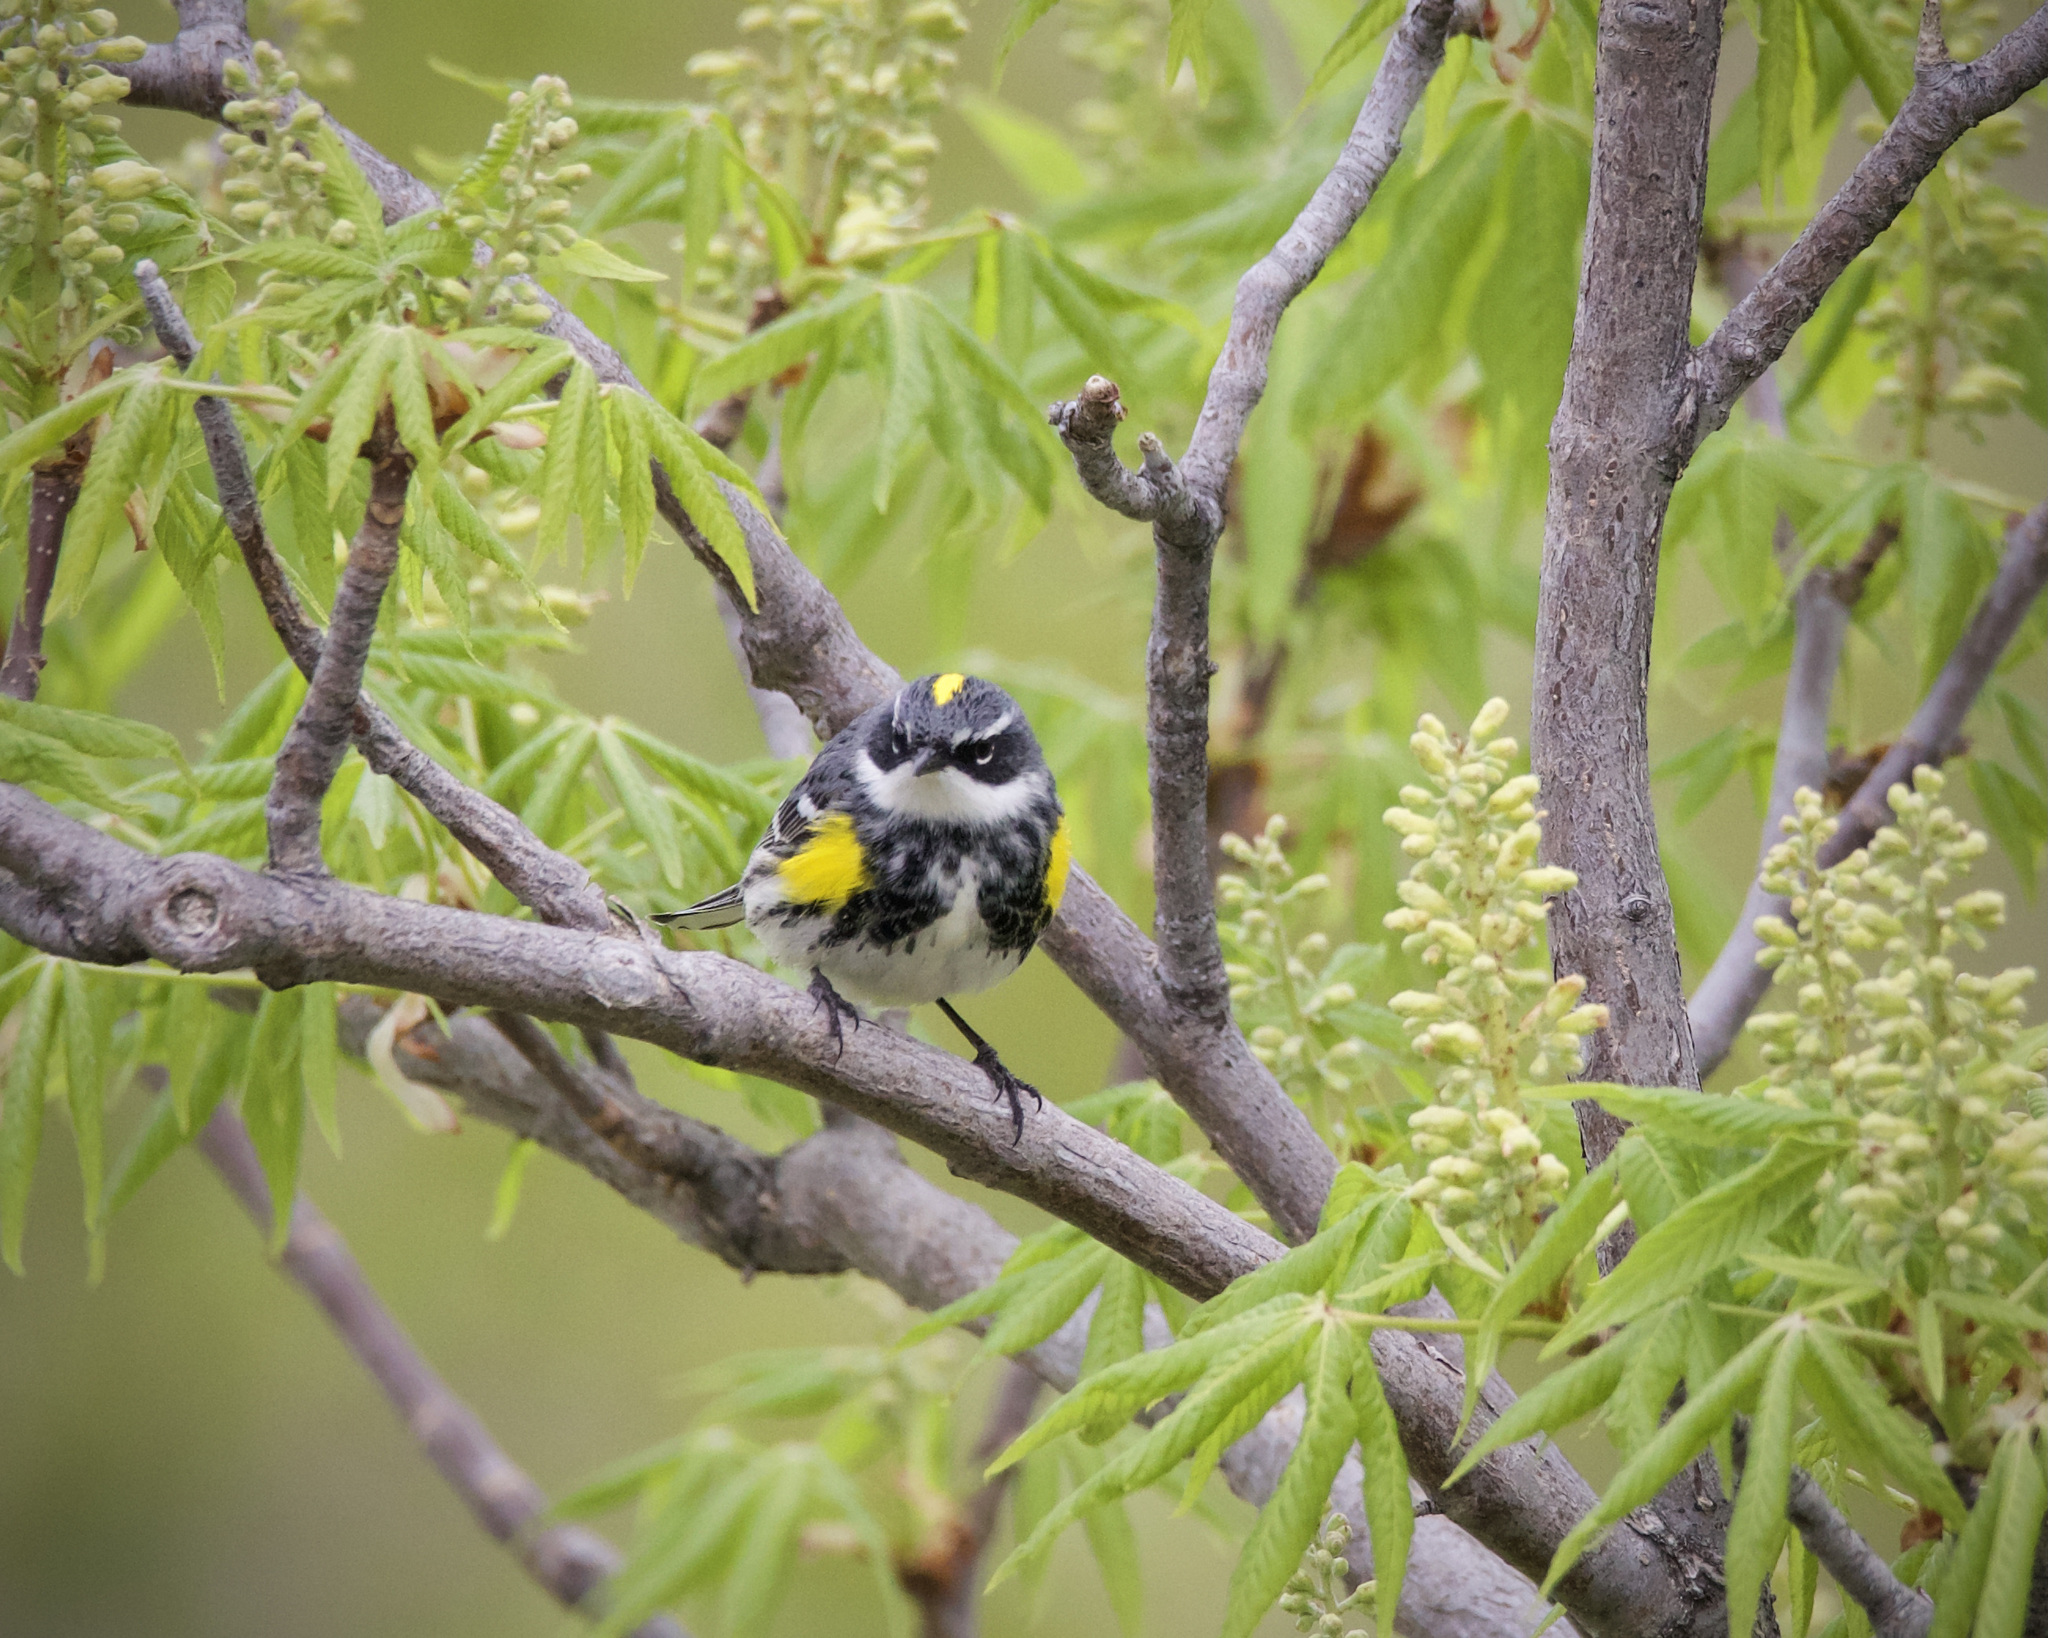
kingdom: Animalia
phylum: Chordata
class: Aves
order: Passeriformes
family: Parulidae
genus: Setophaga
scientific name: Setophaga coronata
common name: Myrtle warbler
